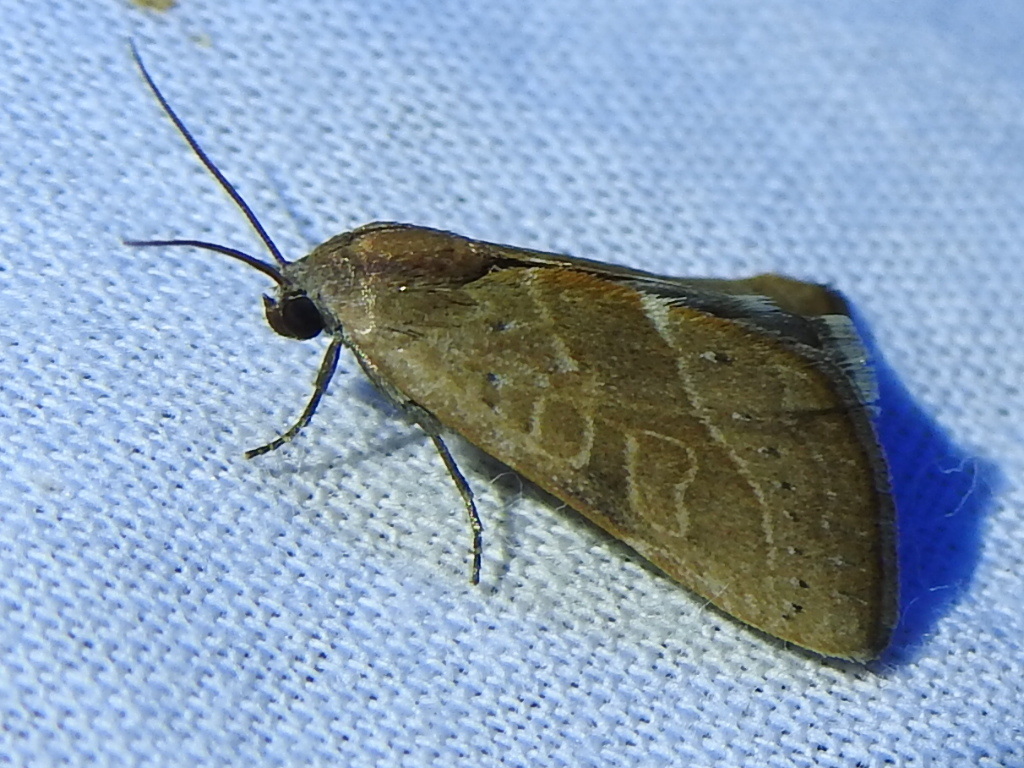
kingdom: Animalia
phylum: Arthropoda
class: Insecta
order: Lepidoptera
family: Noctuidae
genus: Galgula
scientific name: Galgula partita
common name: Wedgeling
